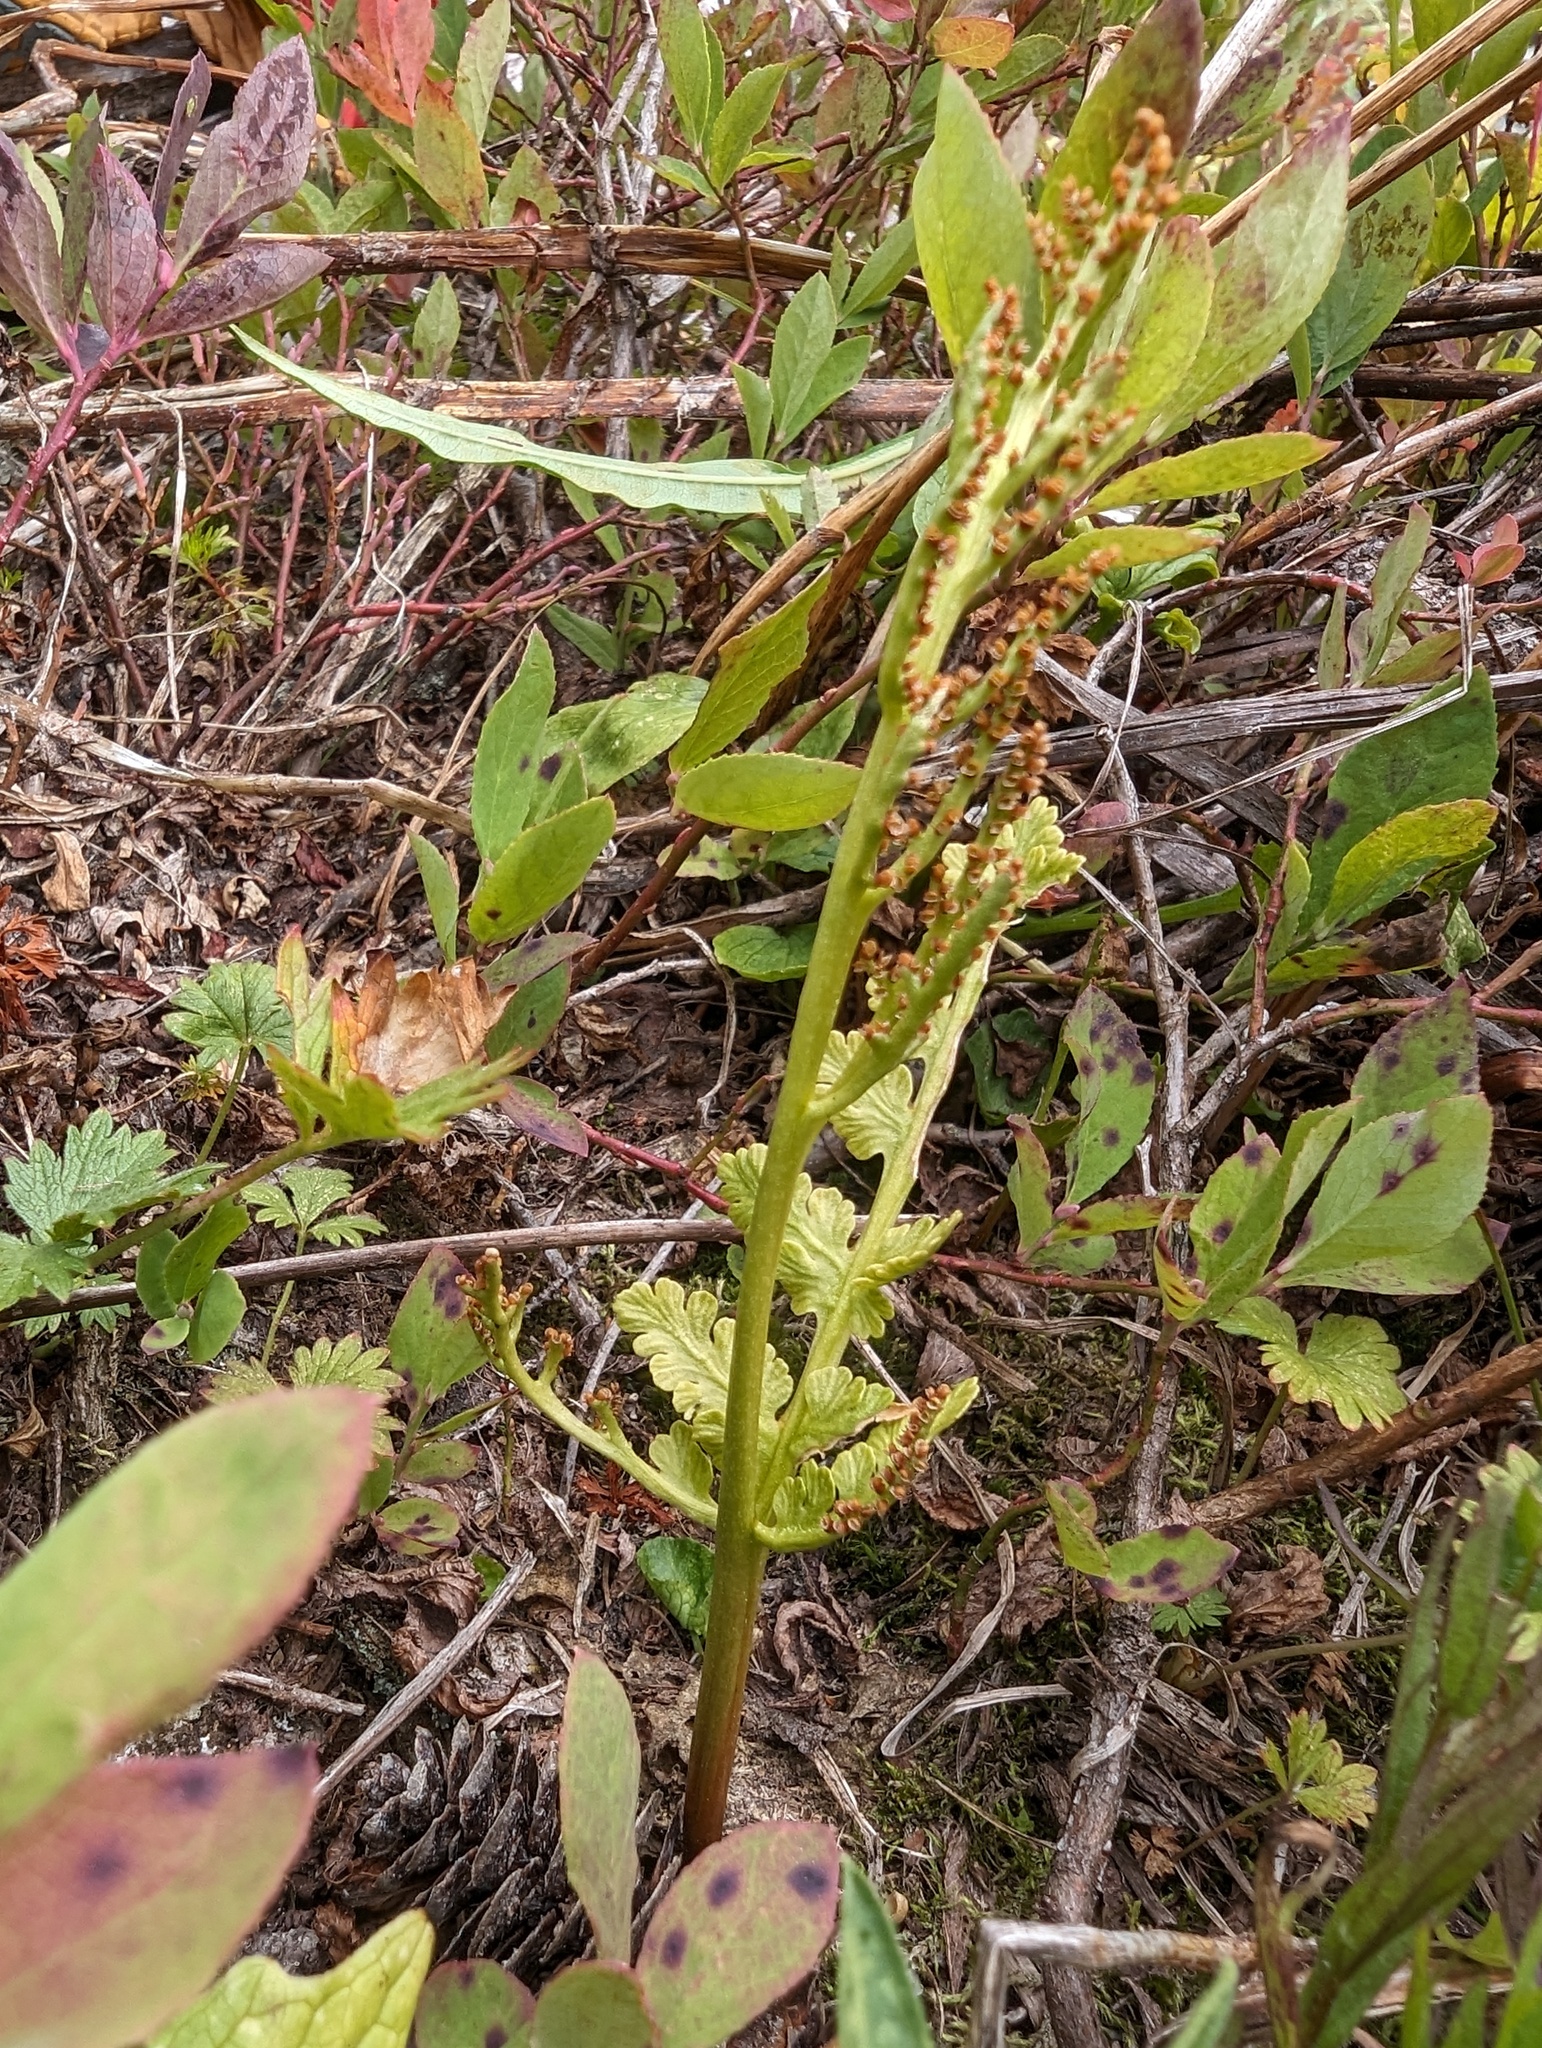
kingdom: Plantae
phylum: Tracheophyta
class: Polypodiopsida
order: Ophioglossales
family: Ophioglossaceae
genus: Botrychium
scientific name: Botrychium pinnatum
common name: Northwestern moonwort
